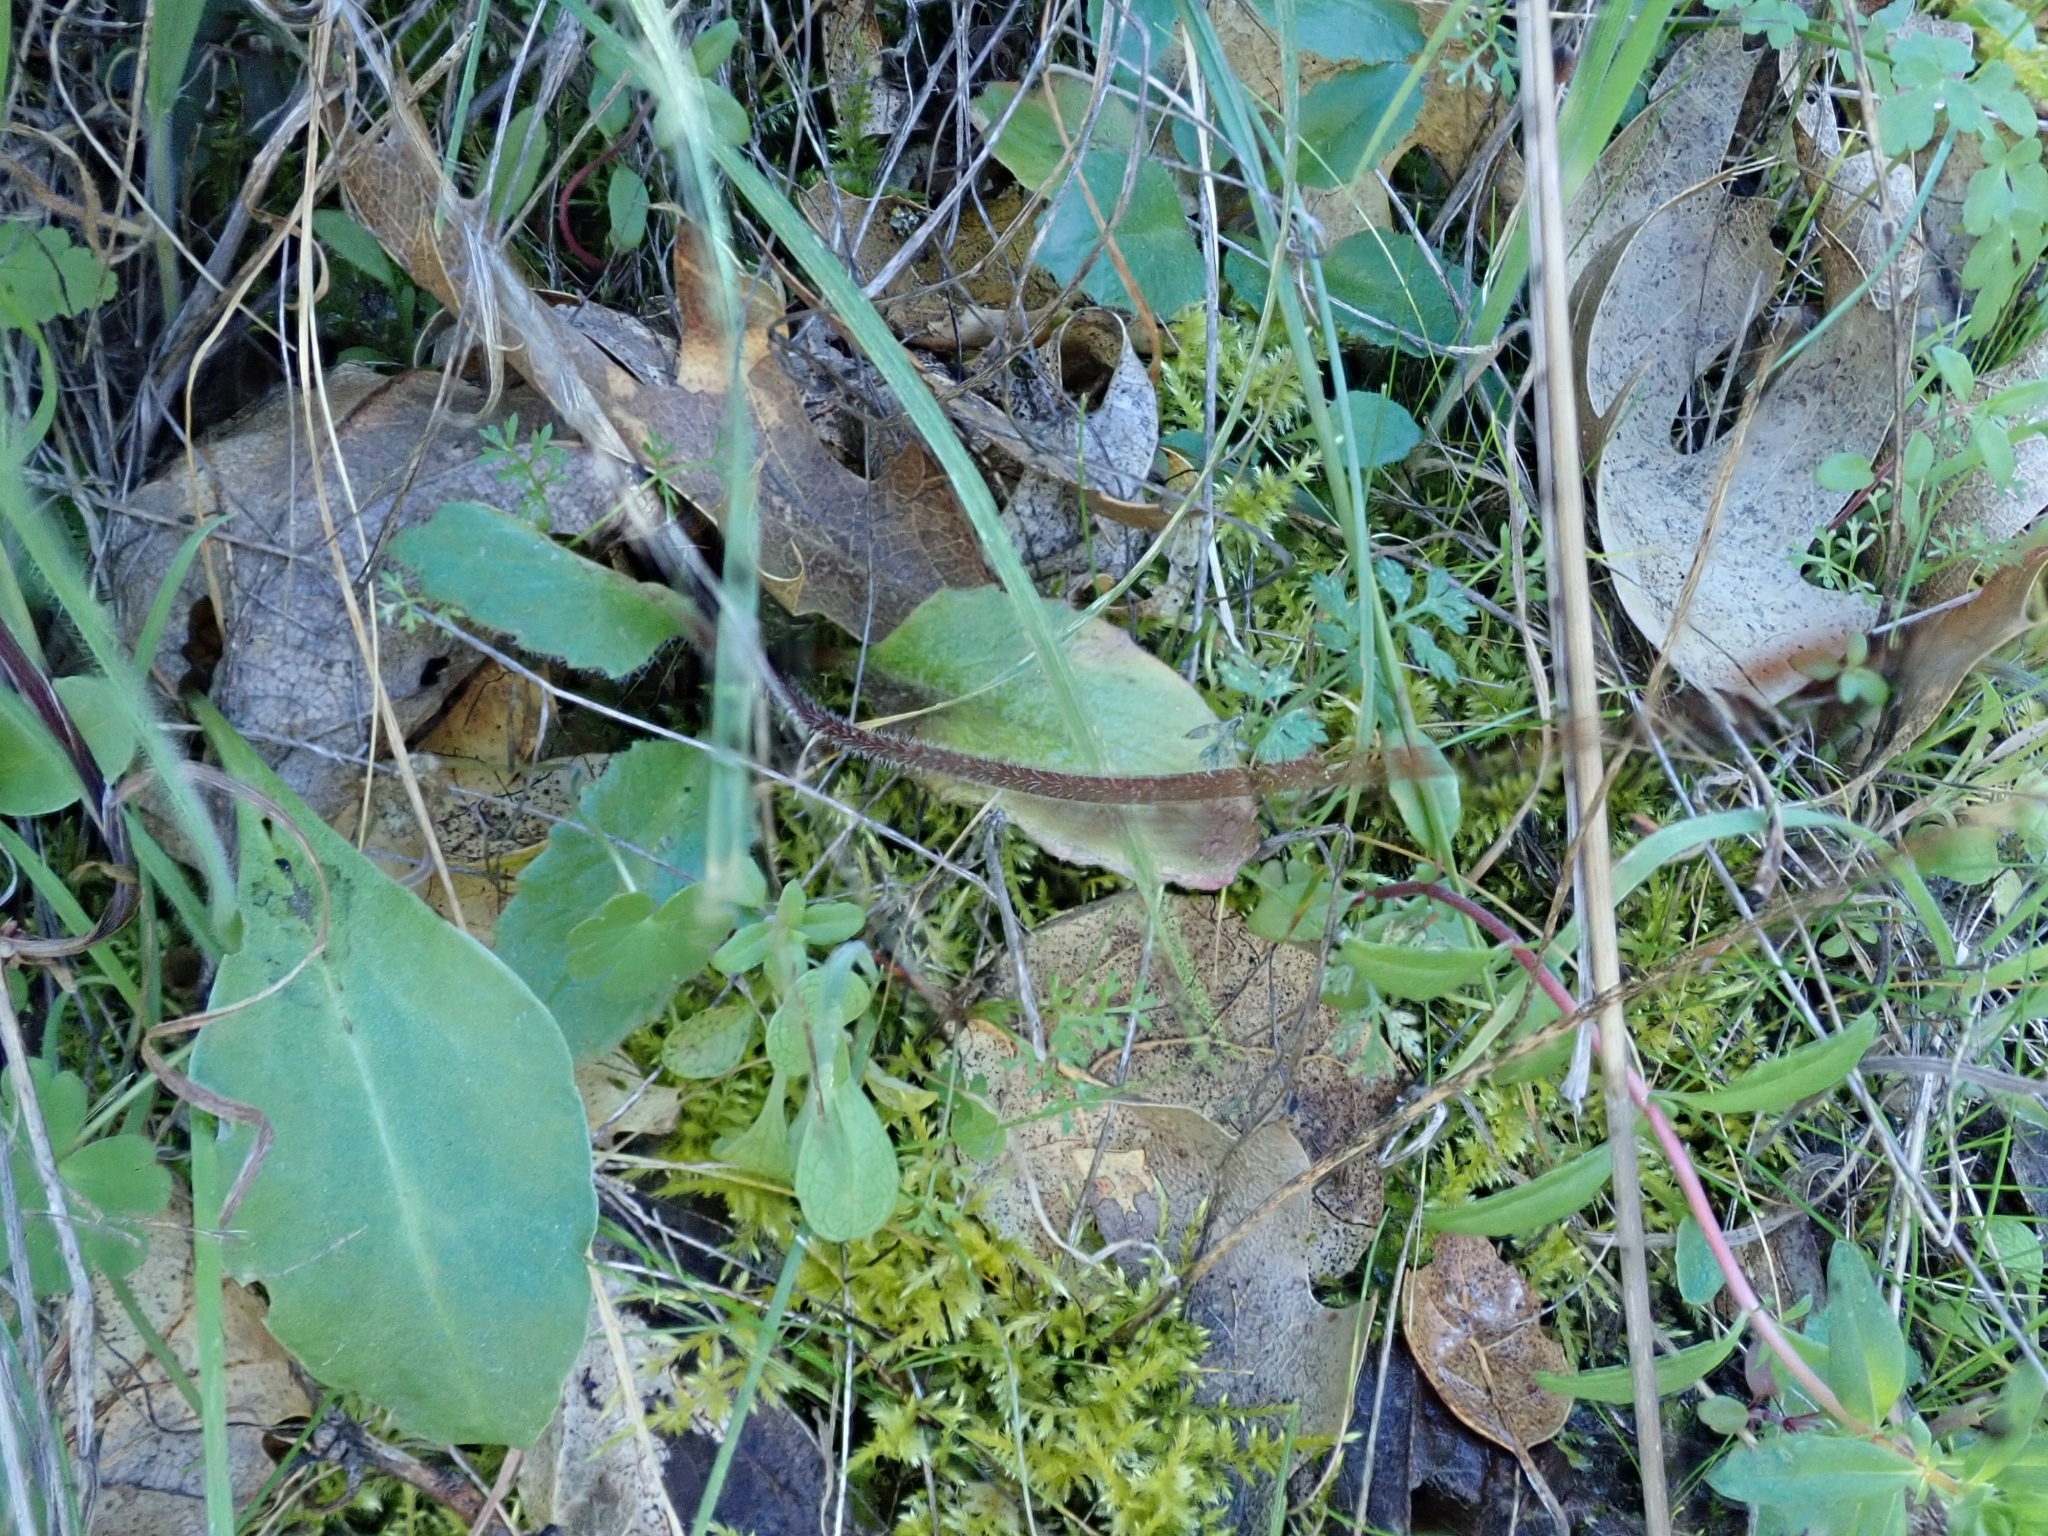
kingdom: Plantae
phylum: Tracheophyta
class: Magnoliopsida
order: Saxifragales
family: Saxifragaceae
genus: Micranthes
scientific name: Micranthes californica
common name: California saxifrage
